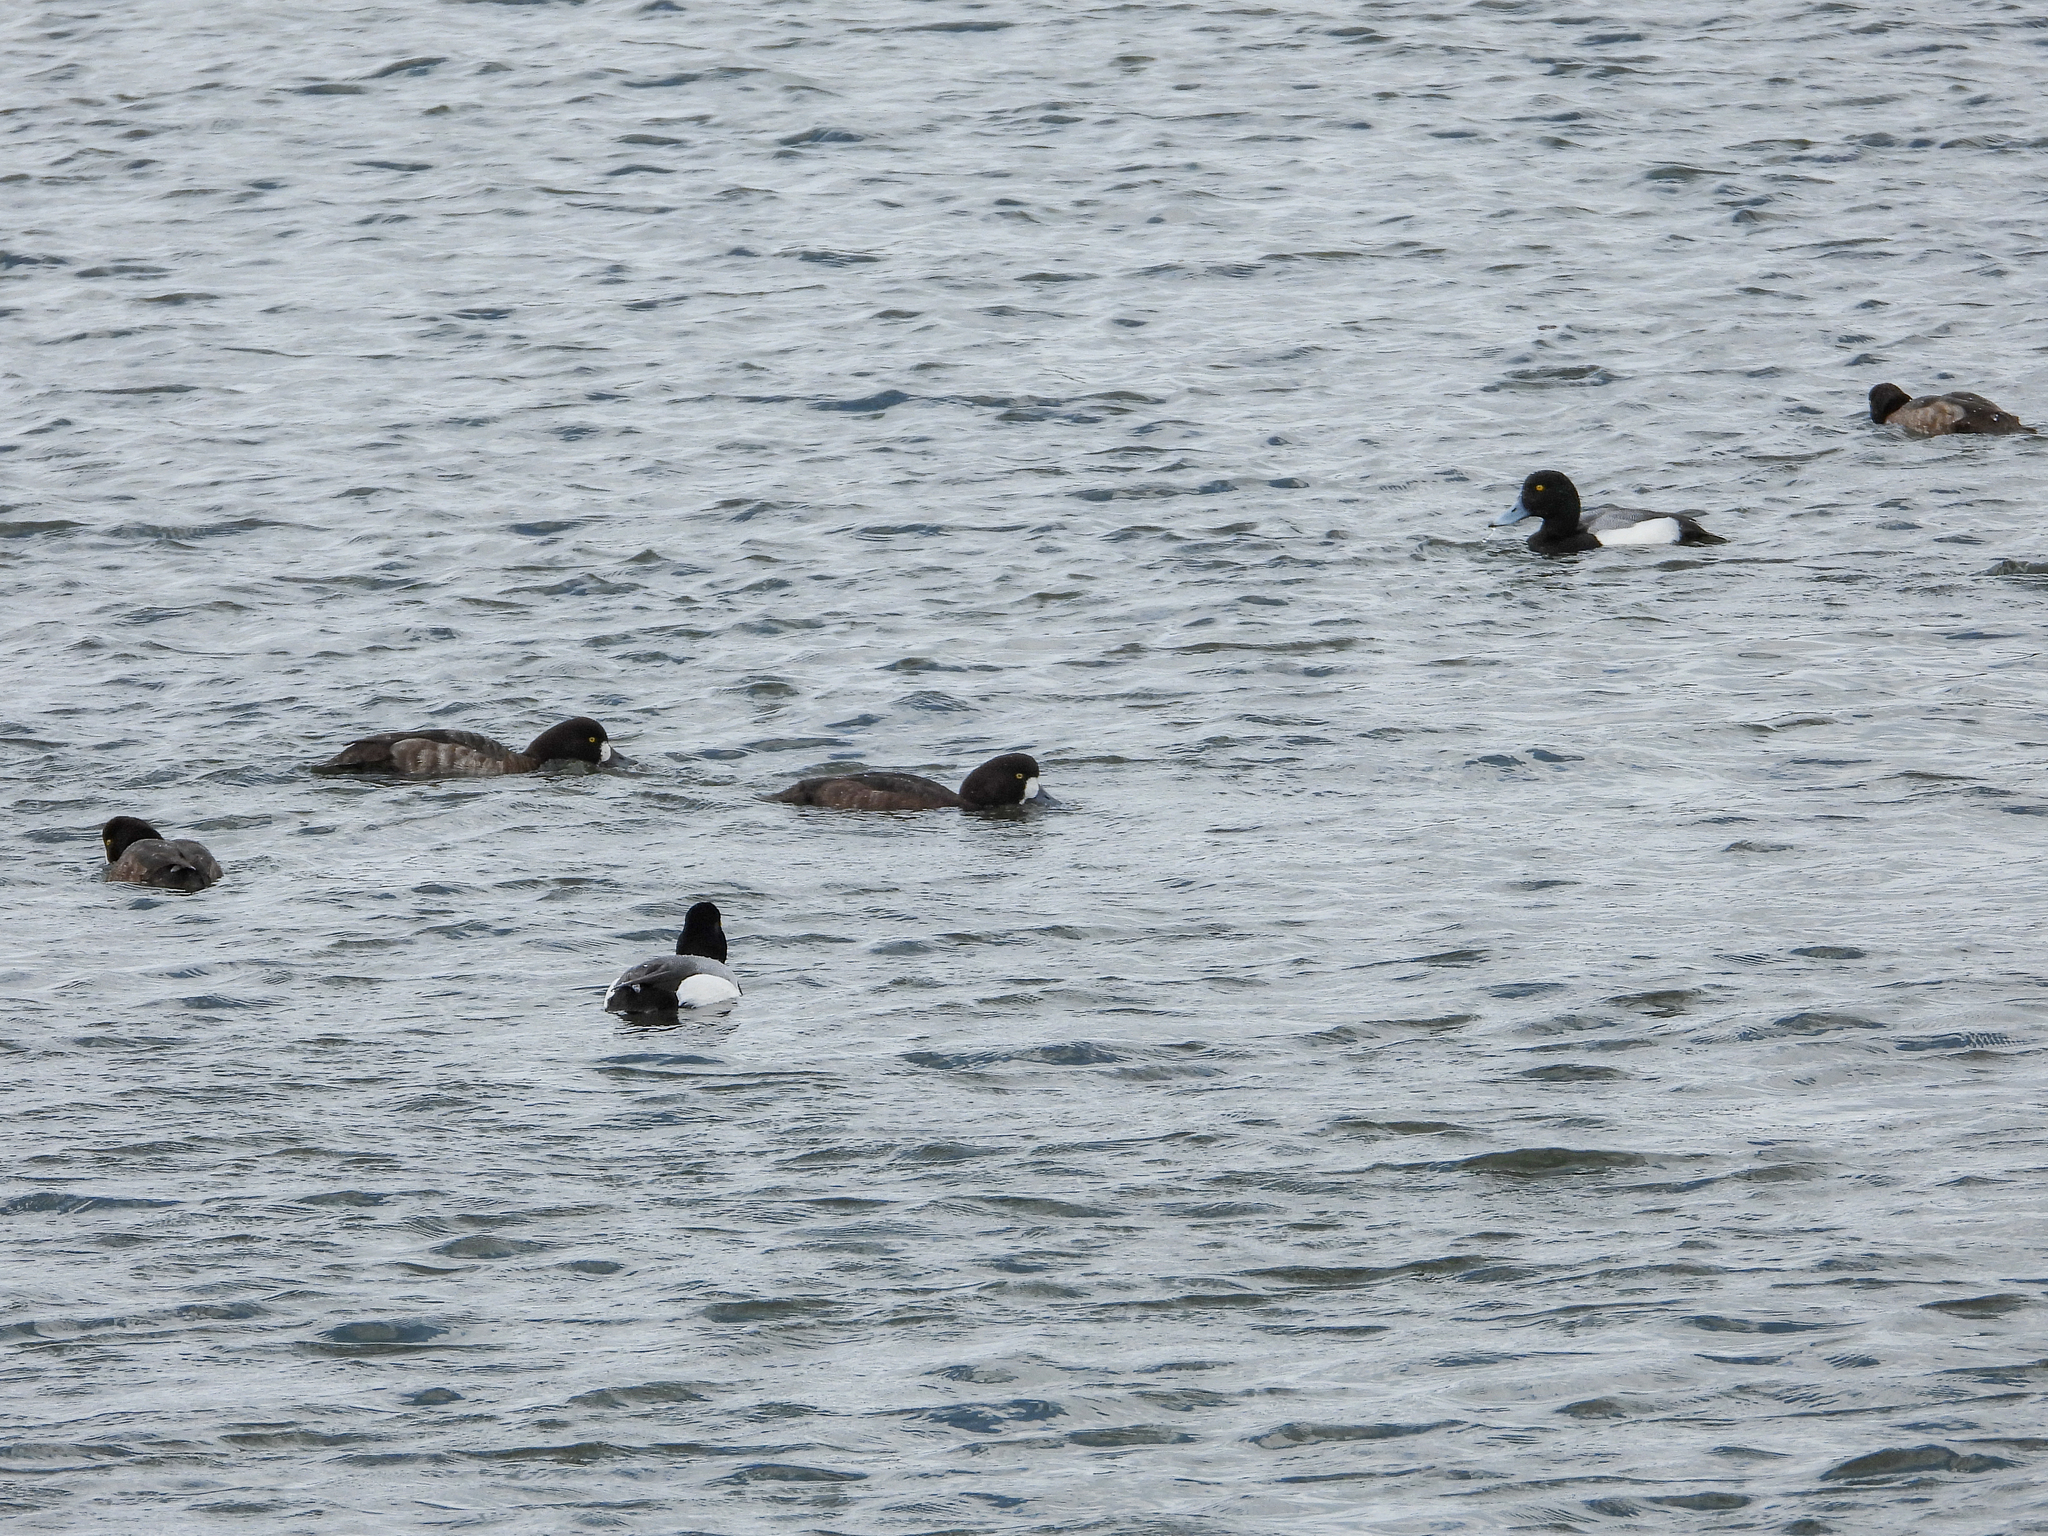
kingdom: Animalia
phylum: Chordata
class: Aves
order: Anseriformes
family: Anatidae
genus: Aythya
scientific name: Aythya marila
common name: Greater scaup
